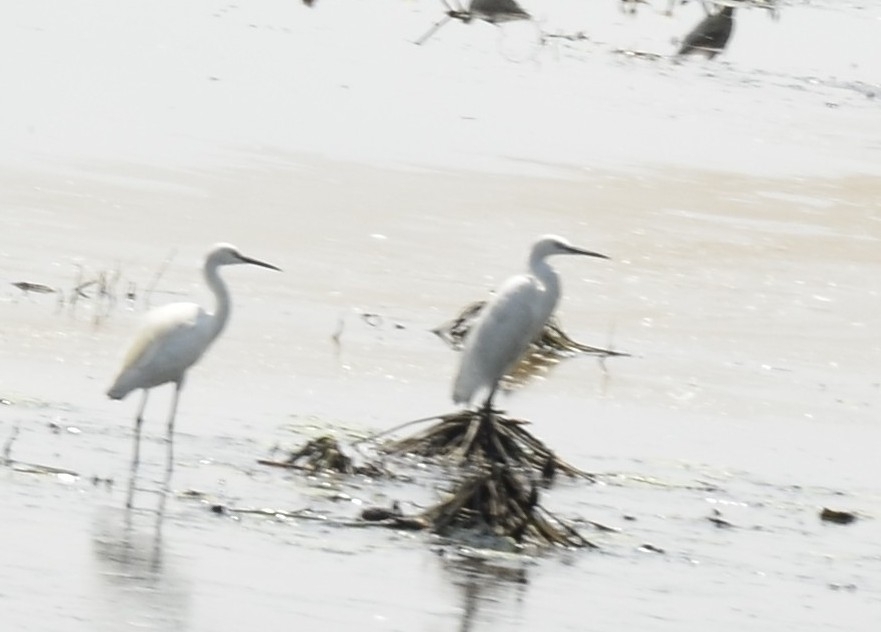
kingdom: Animalia
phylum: Chordata
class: Aves
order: Pelecaniformes
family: Ardeidae
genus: Egretta
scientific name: Egretta garzetta
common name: Little egret
